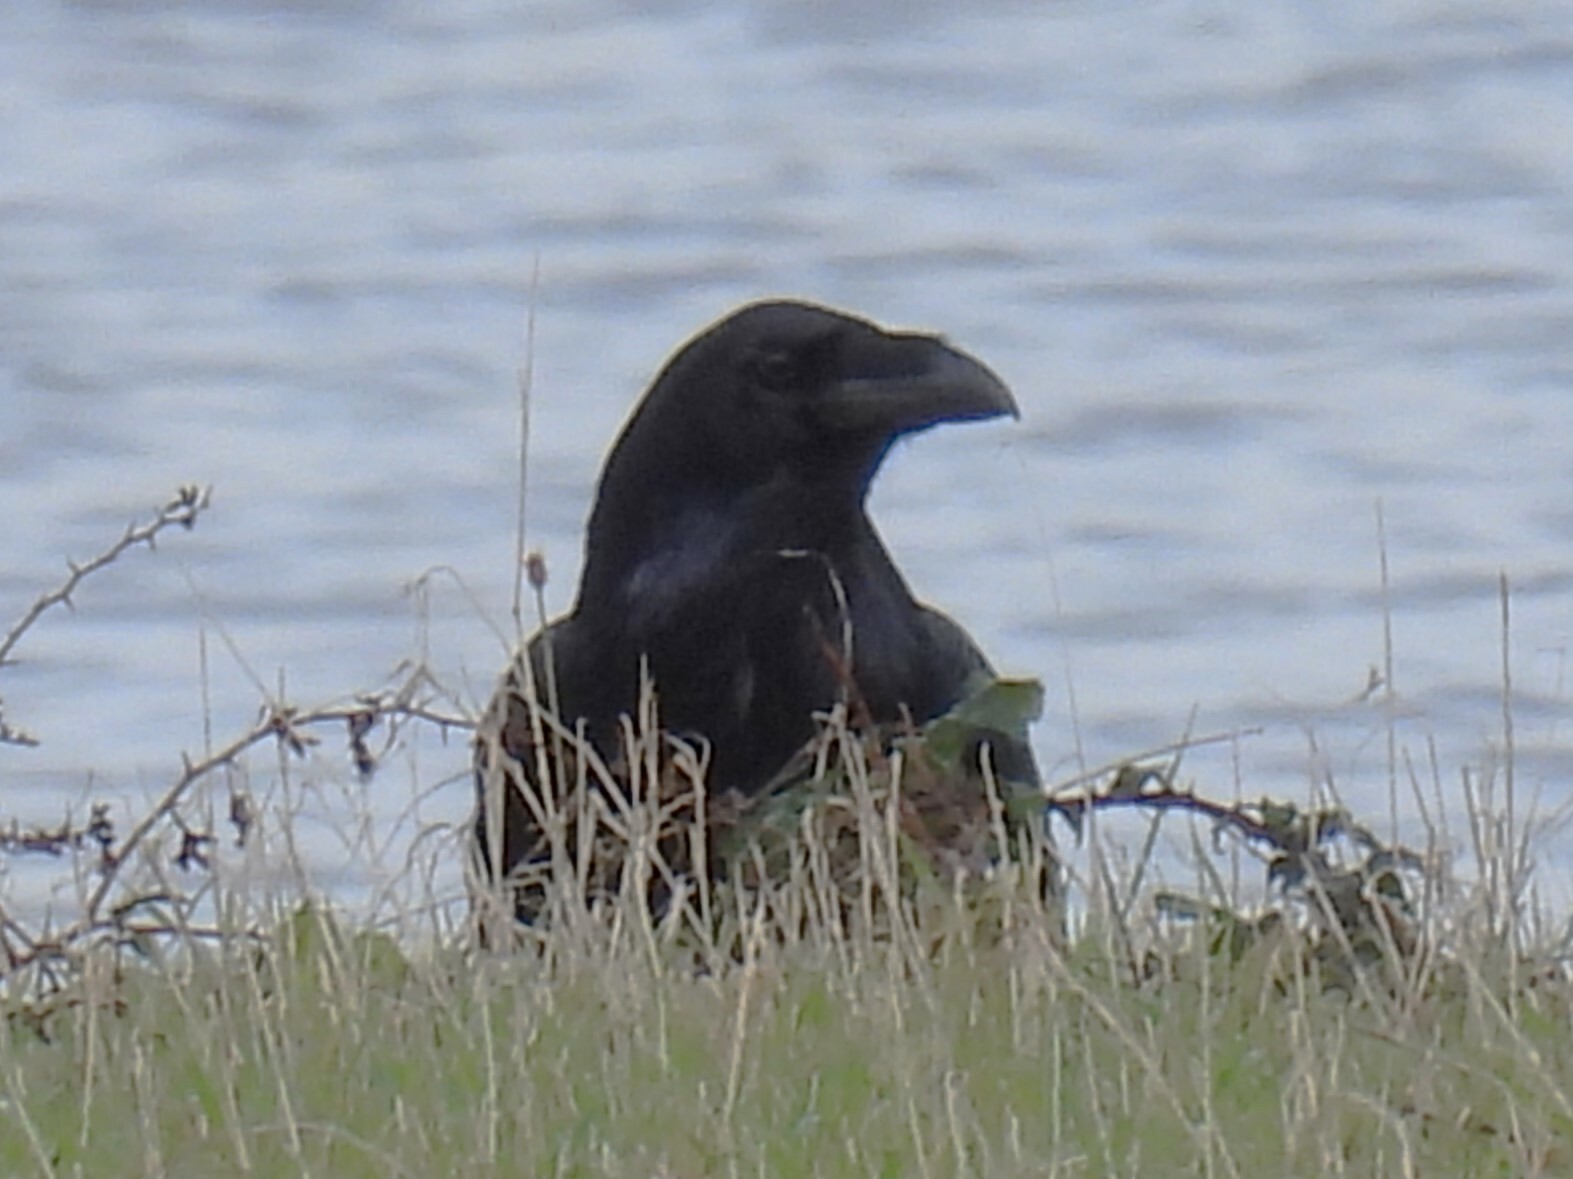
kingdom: Animalia
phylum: Chordata
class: Aves
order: Passeriformes
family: Corvidae
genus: Corvus
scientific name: Corvus corax
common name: Common raven
